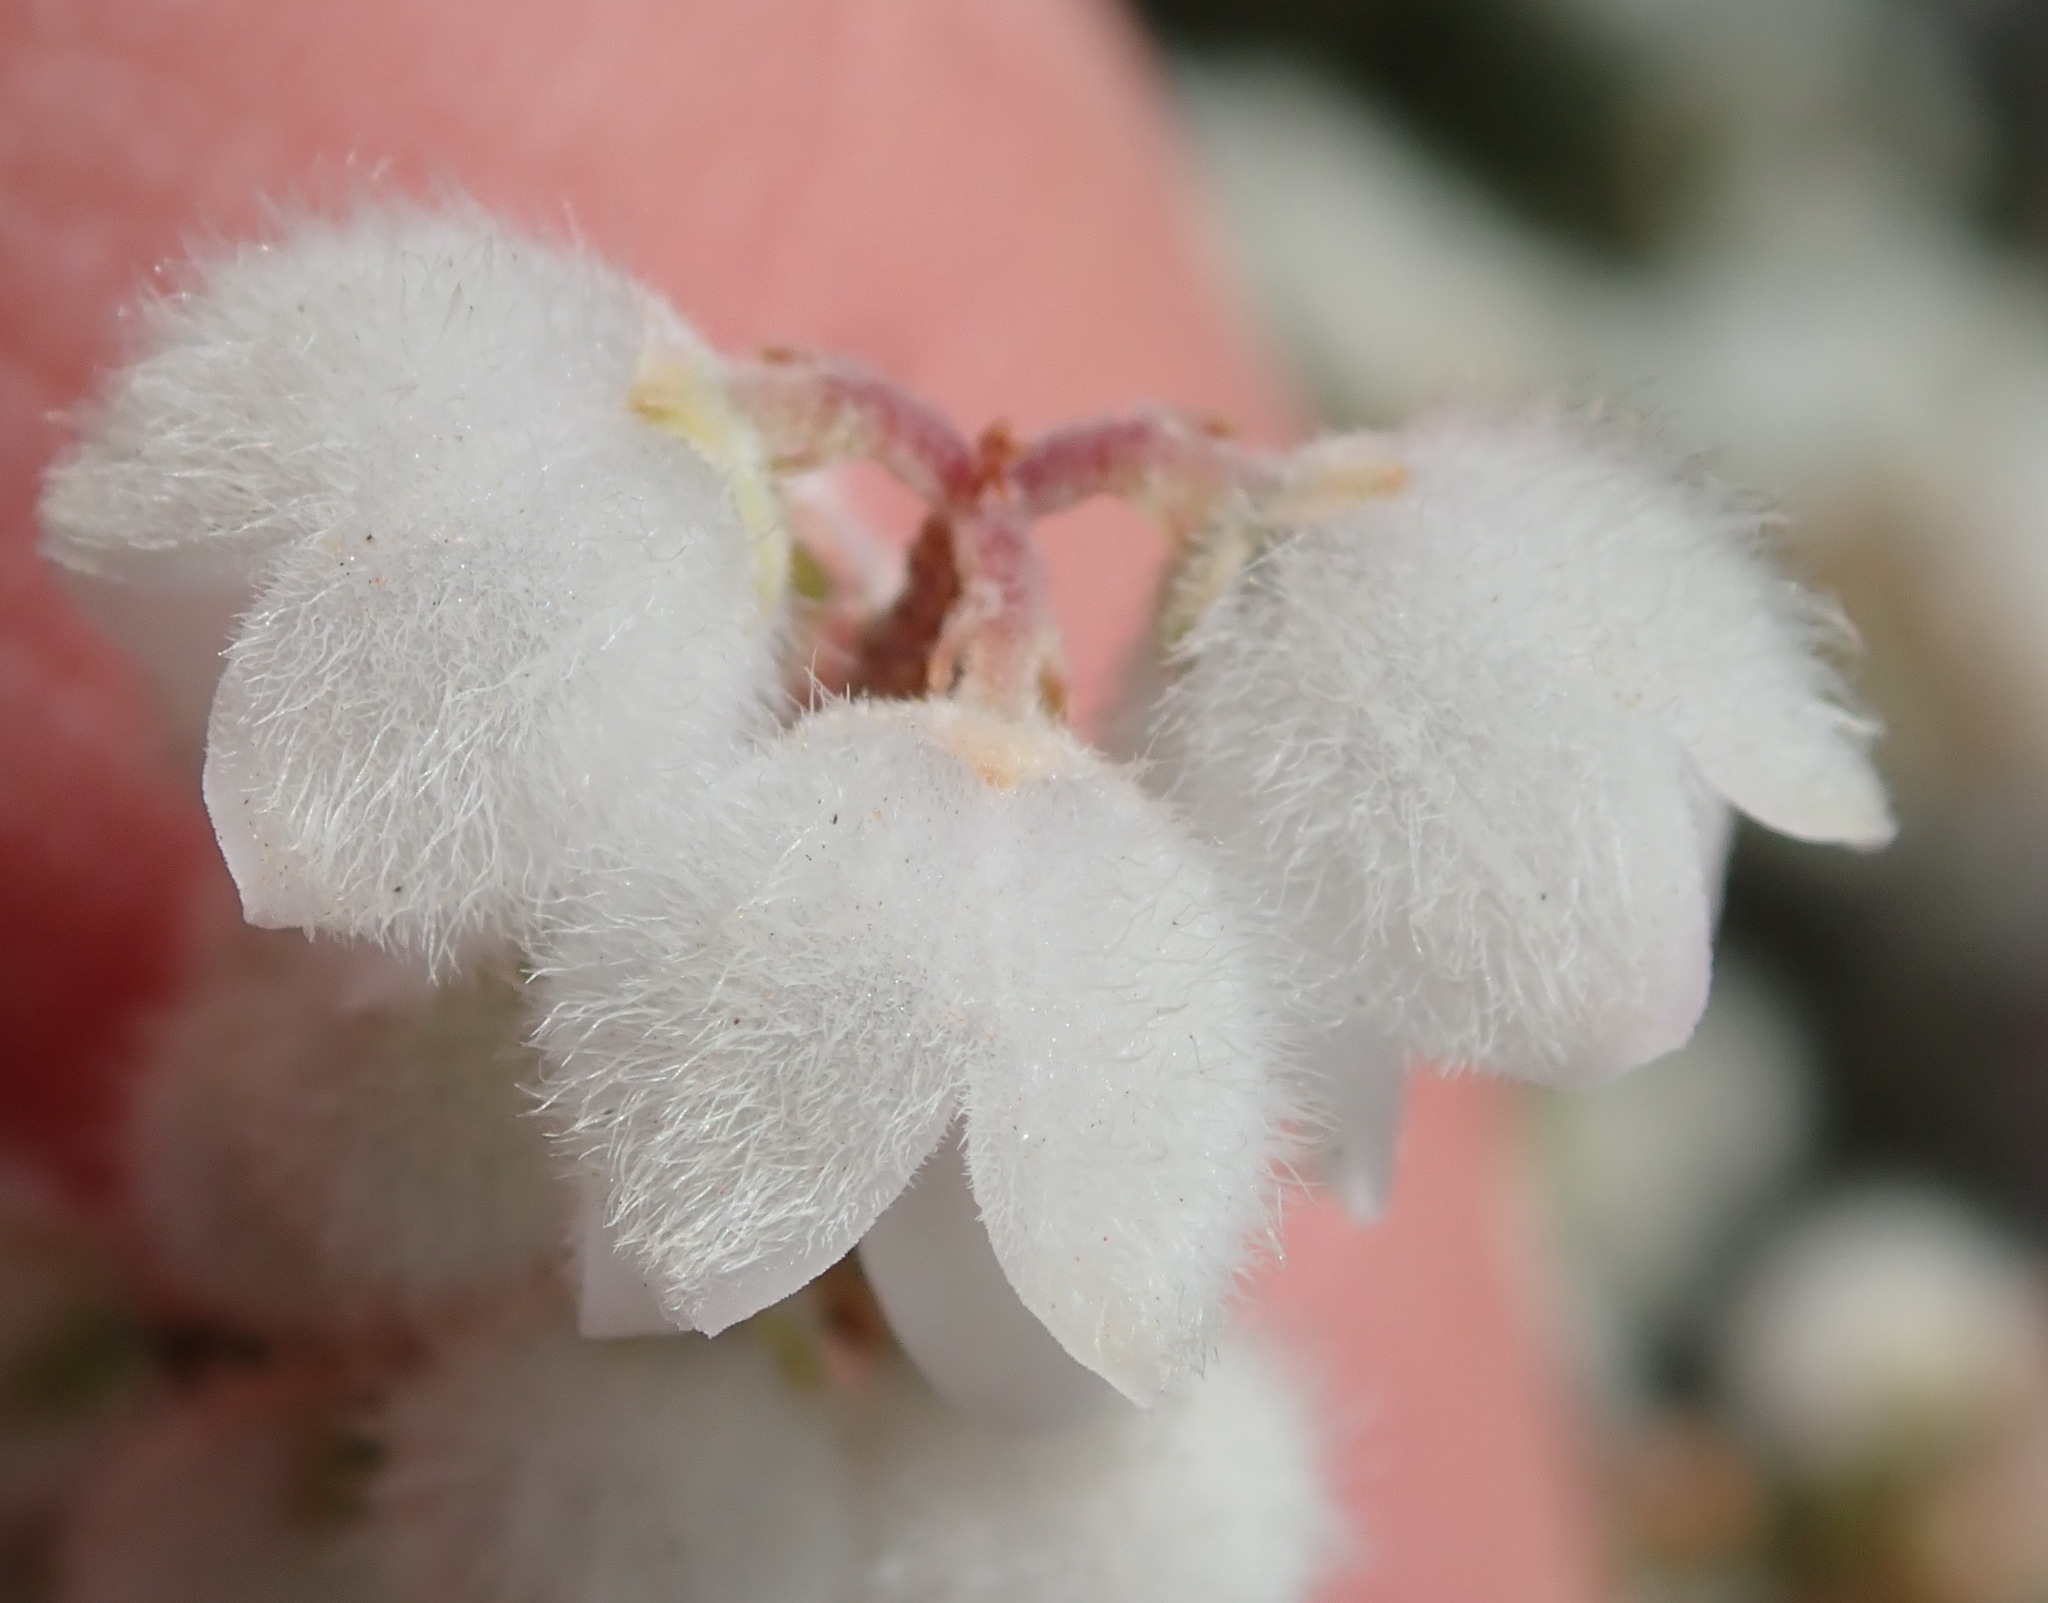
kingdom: Plantae
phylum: Tracheophyta
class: Magnoliopsida
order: Ericales
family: Ericaceae
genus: Erica
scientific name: Erica peziza
